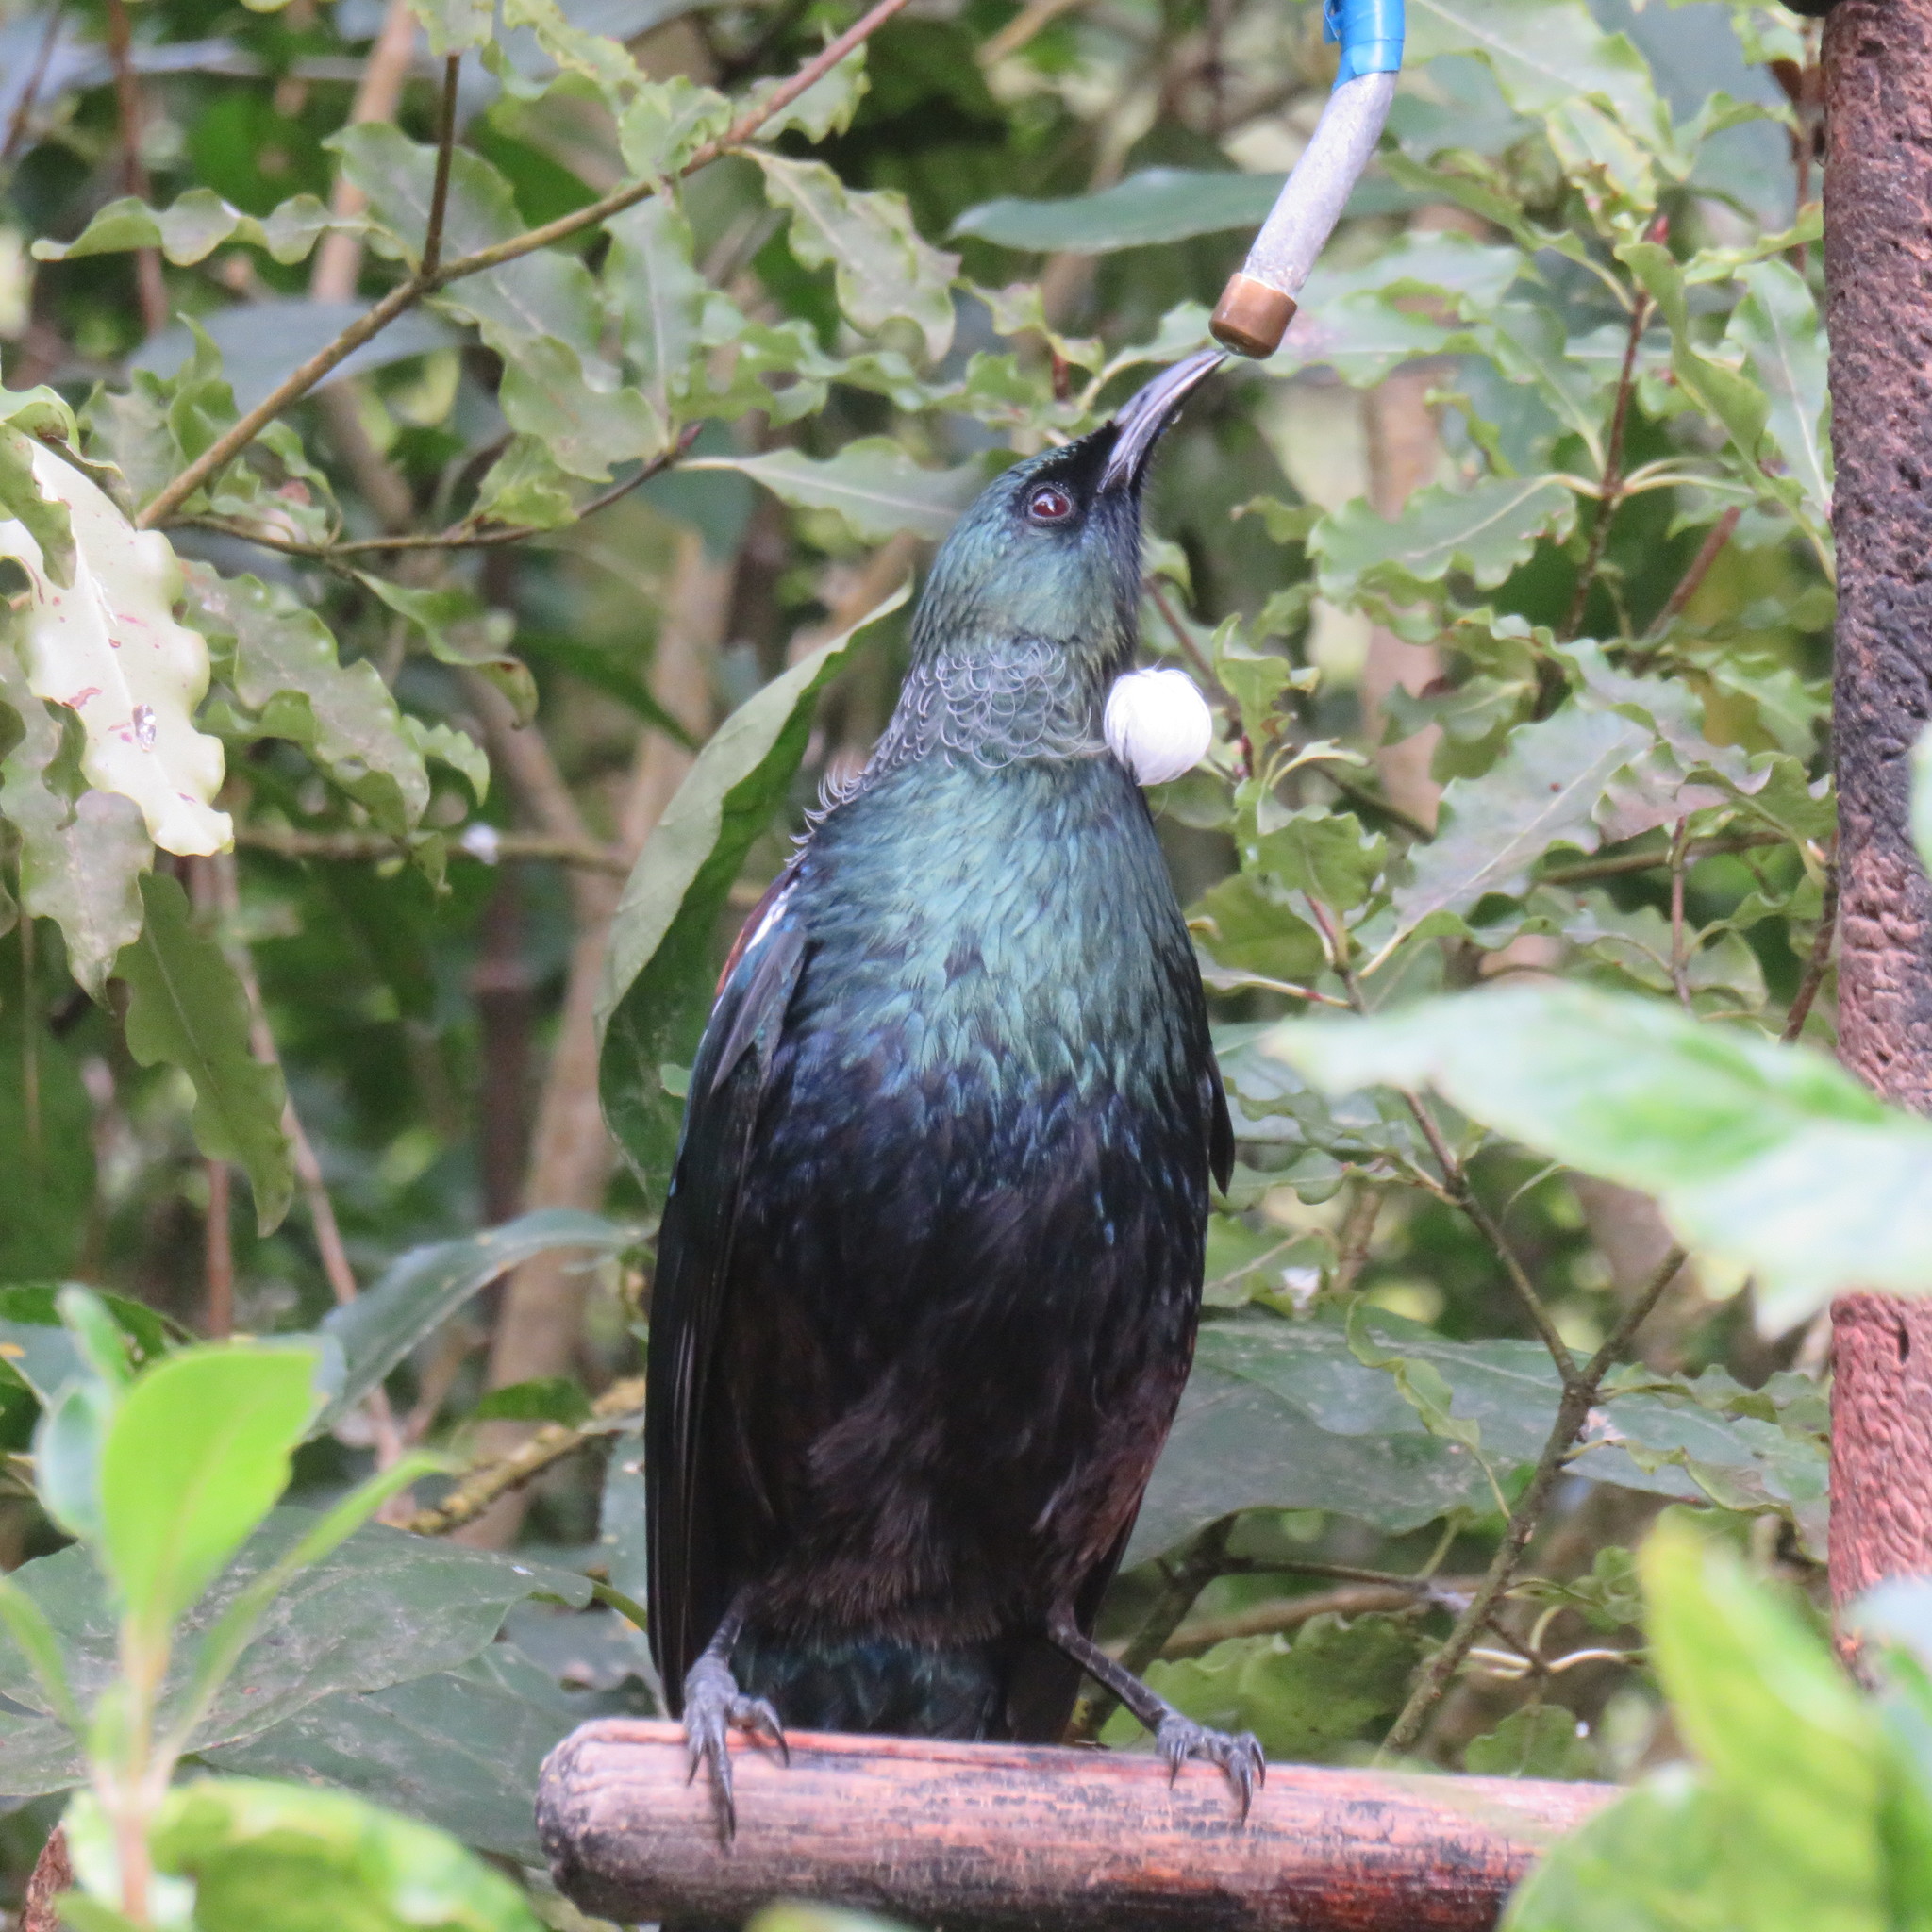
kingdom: Animalia
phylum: Chordata
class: Aves
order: Passeriformes
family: Meliphagidae
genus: Prosthemadera
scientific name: Prosthemadera novaeseelandiae
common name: Tui
